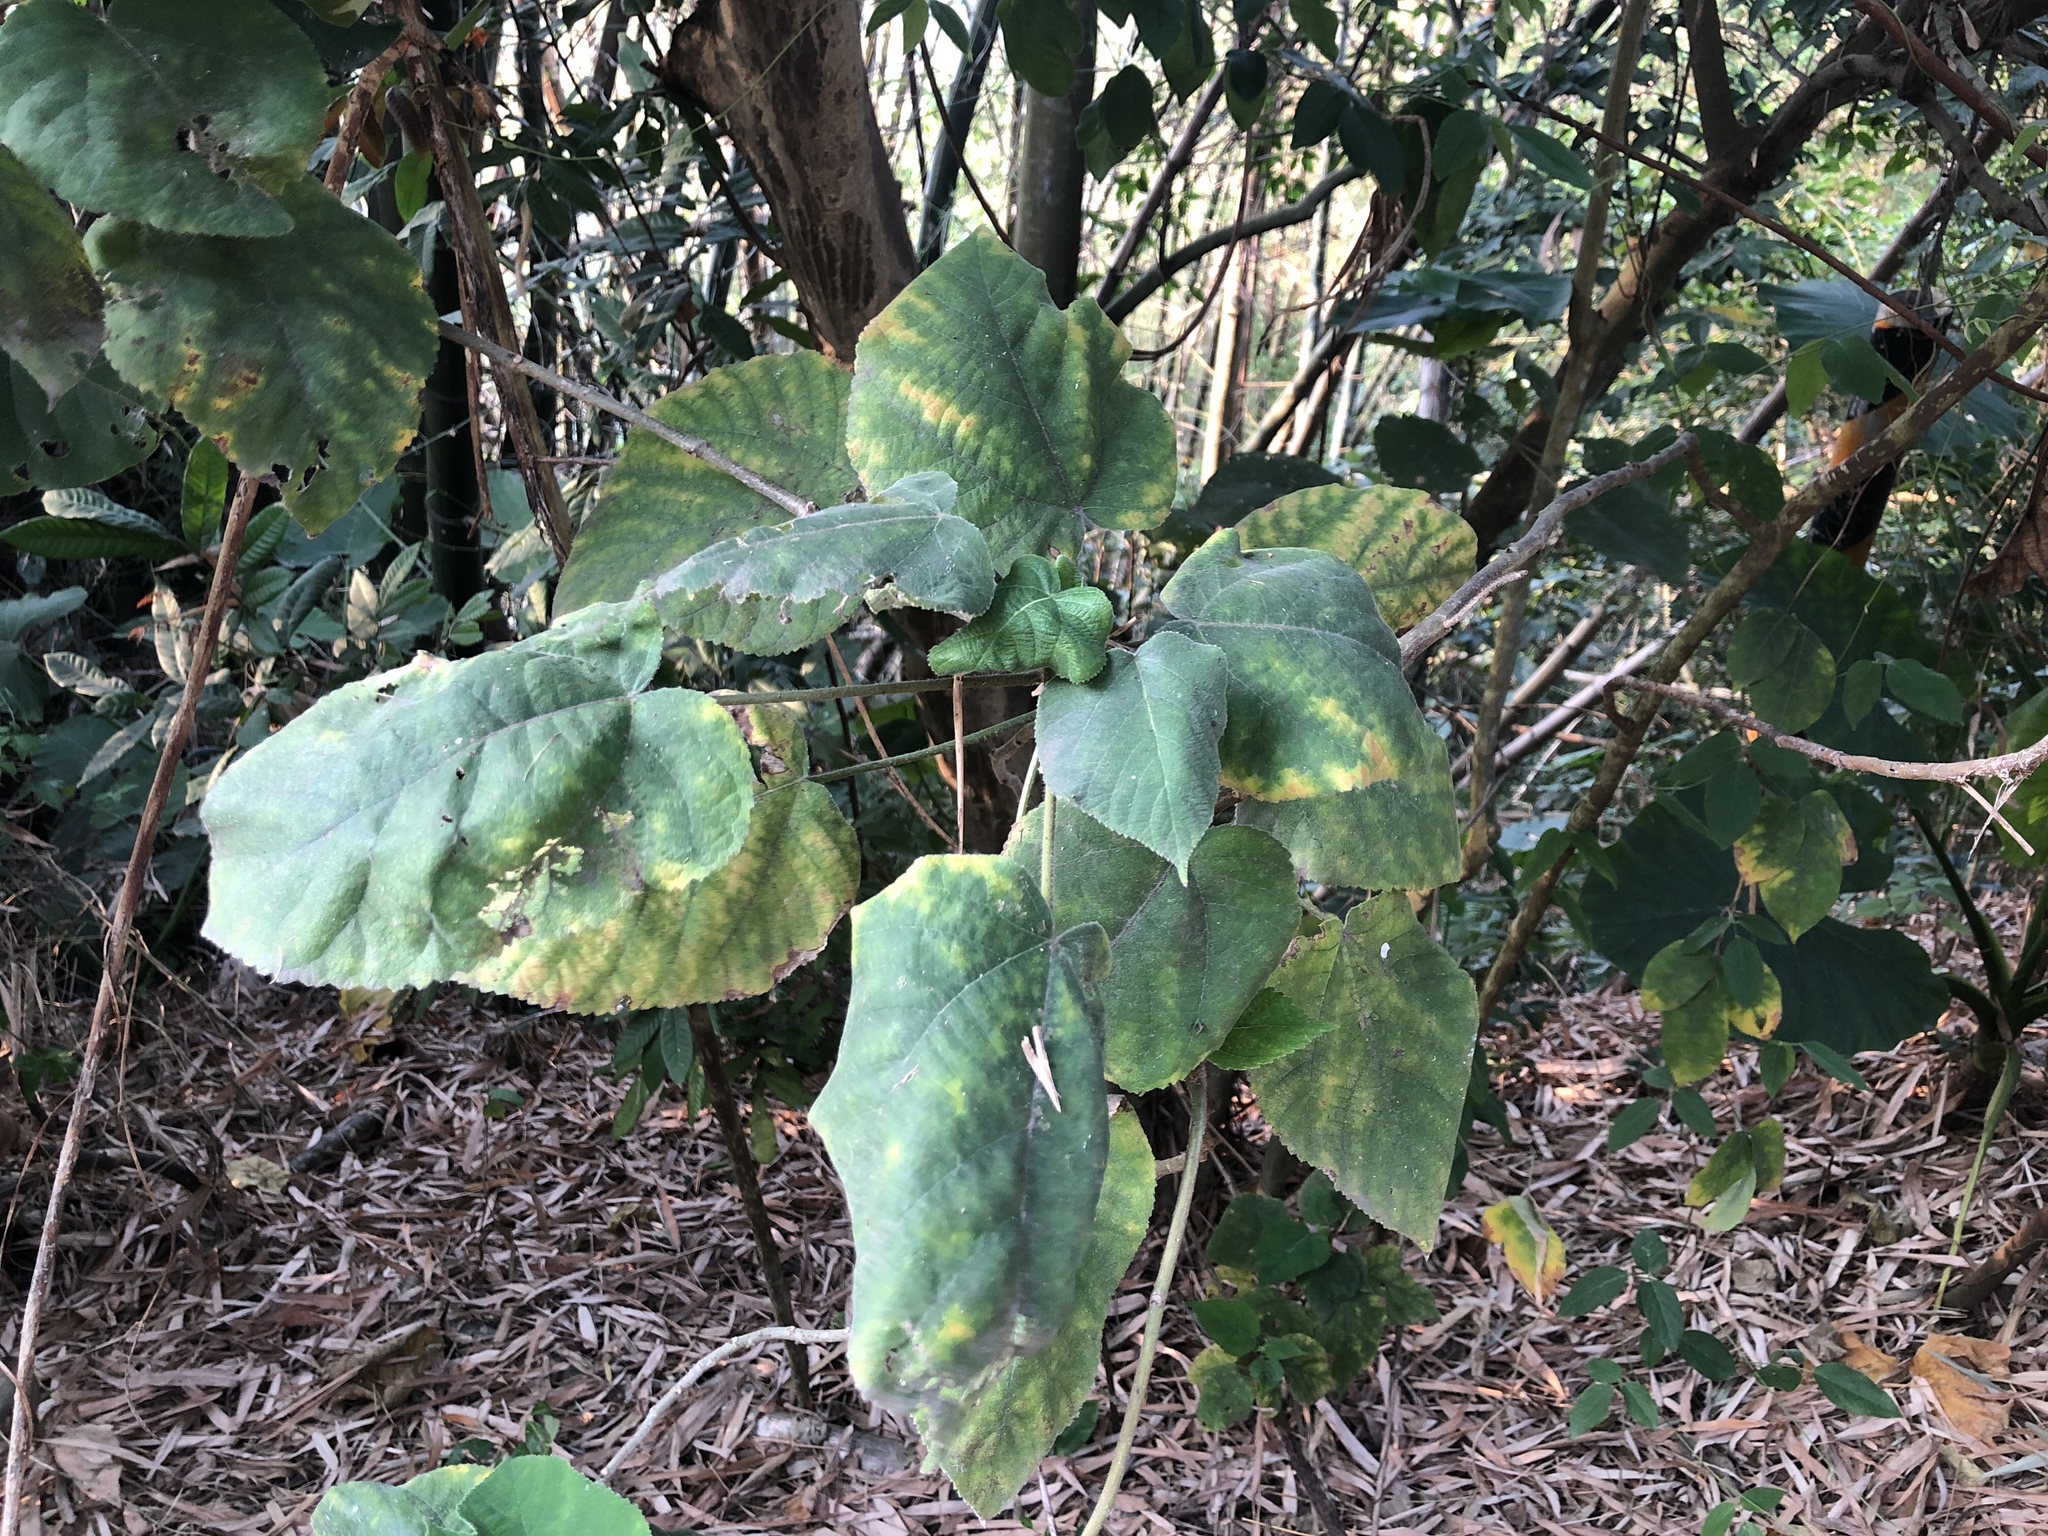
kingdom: Plantae
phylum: Tracheophyta
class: Magnoliopsida
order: Rosales
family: Moraceae
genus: Broussonetia
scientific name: Broussonetia papyrifera
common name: Paper mulberry
